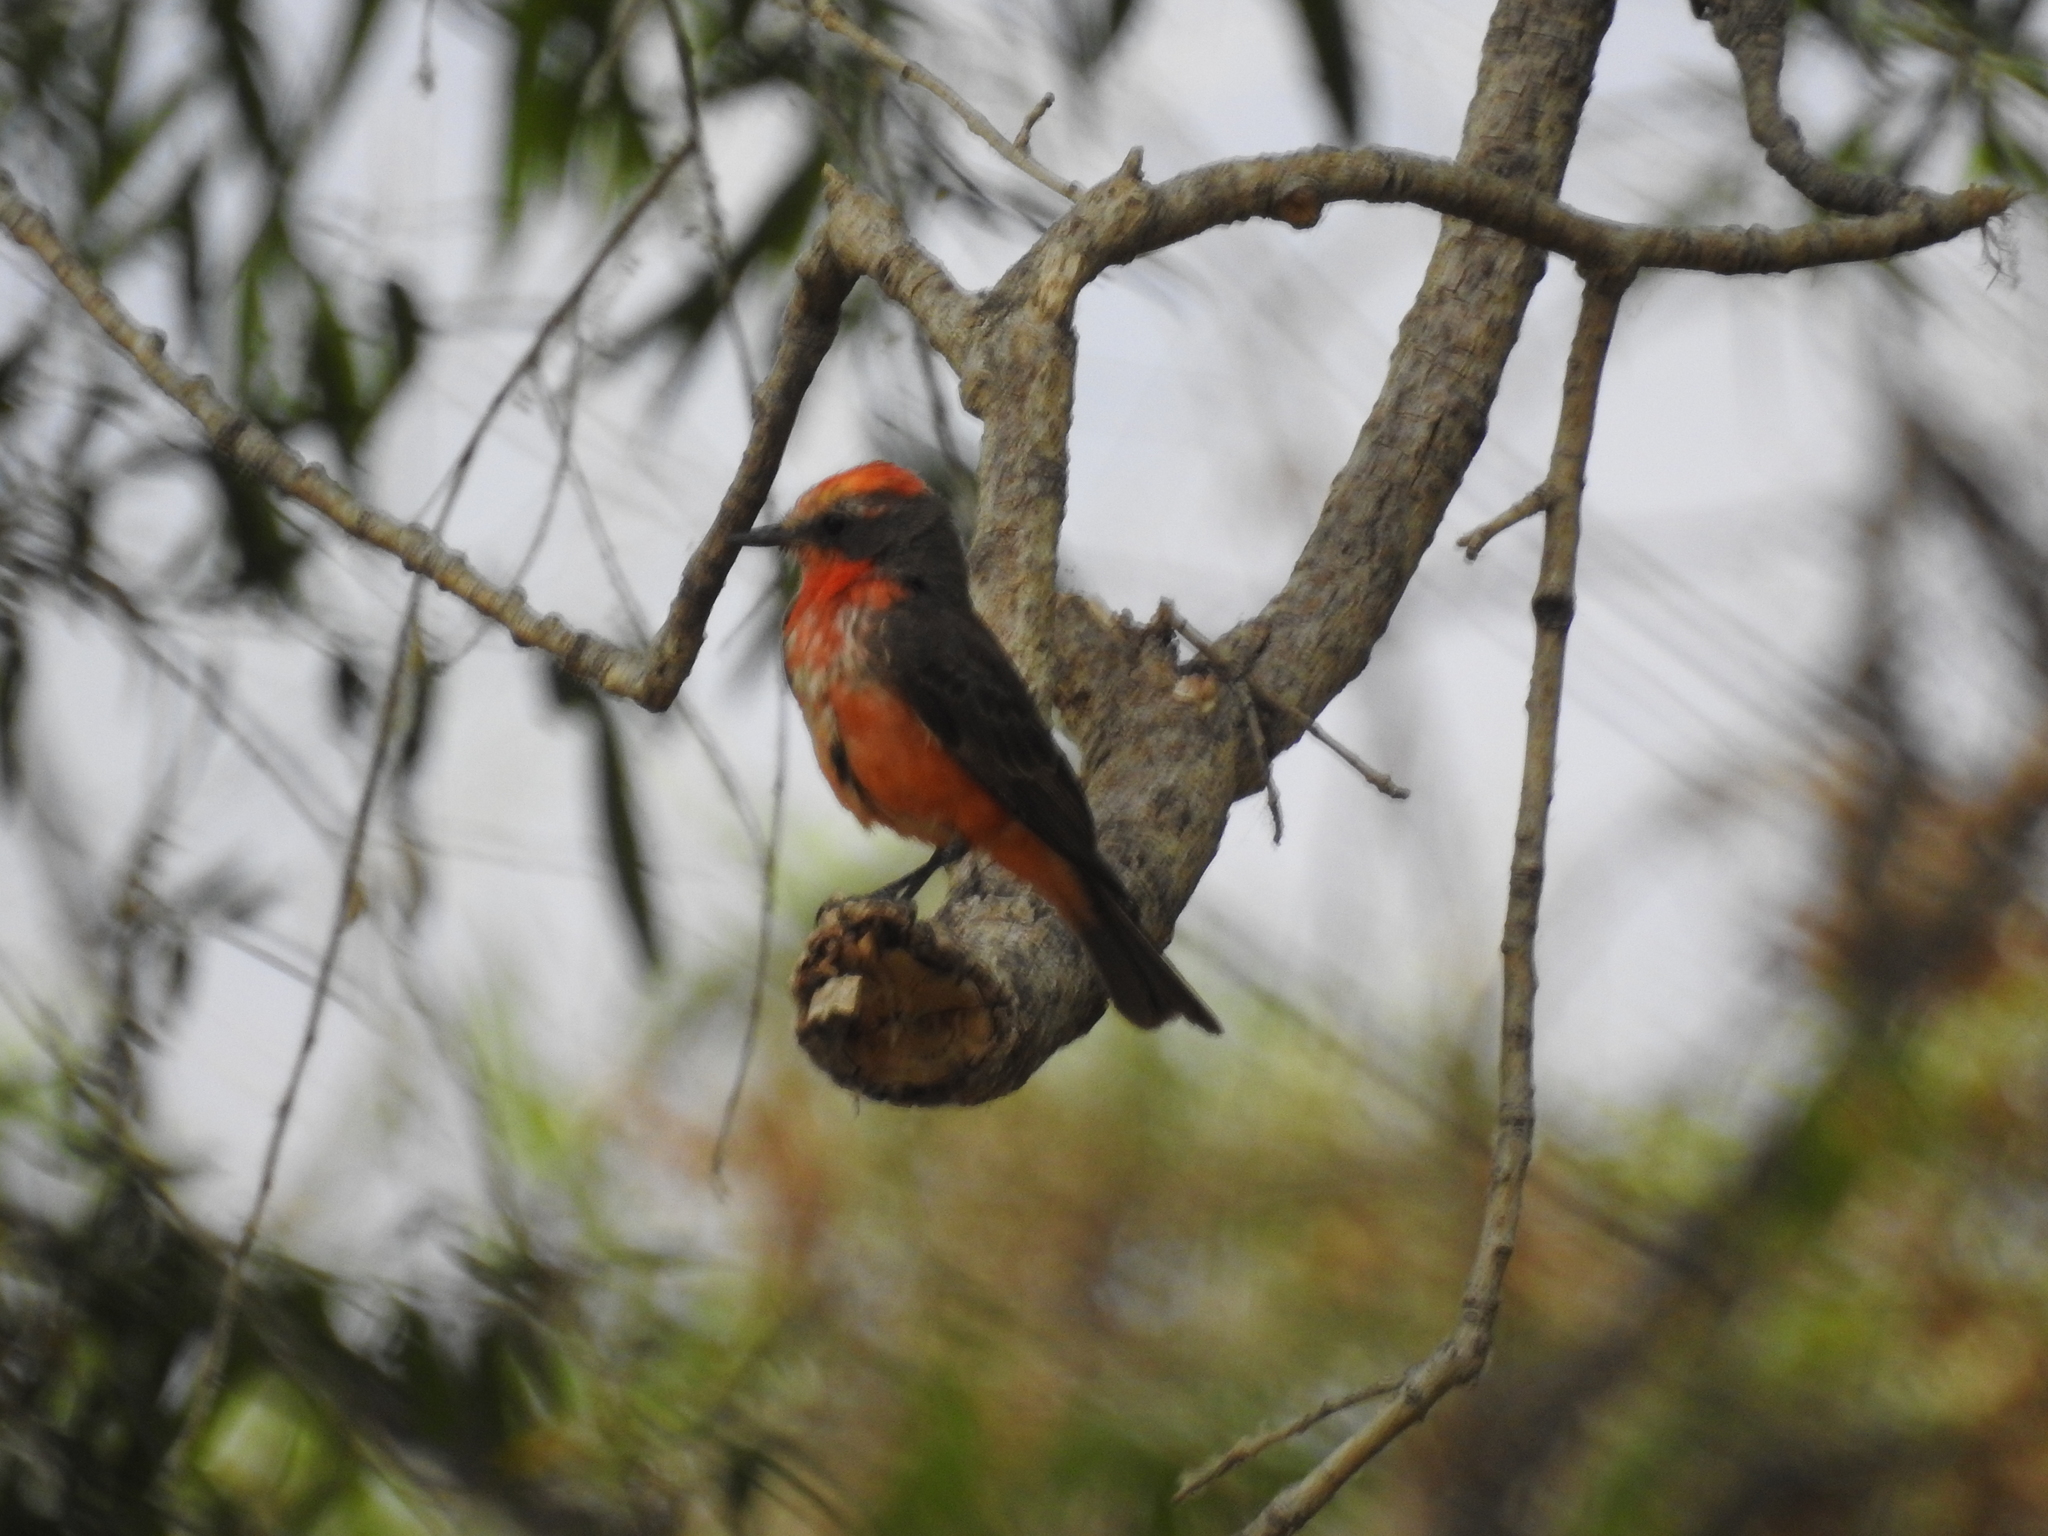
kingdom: Animalia
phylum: Chordata
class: Aves
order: Passeriformes
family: Tyrannidae
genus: Pyrocephalus
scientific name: Pyrocephalus rubinus
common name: Vermilion flycatcher
